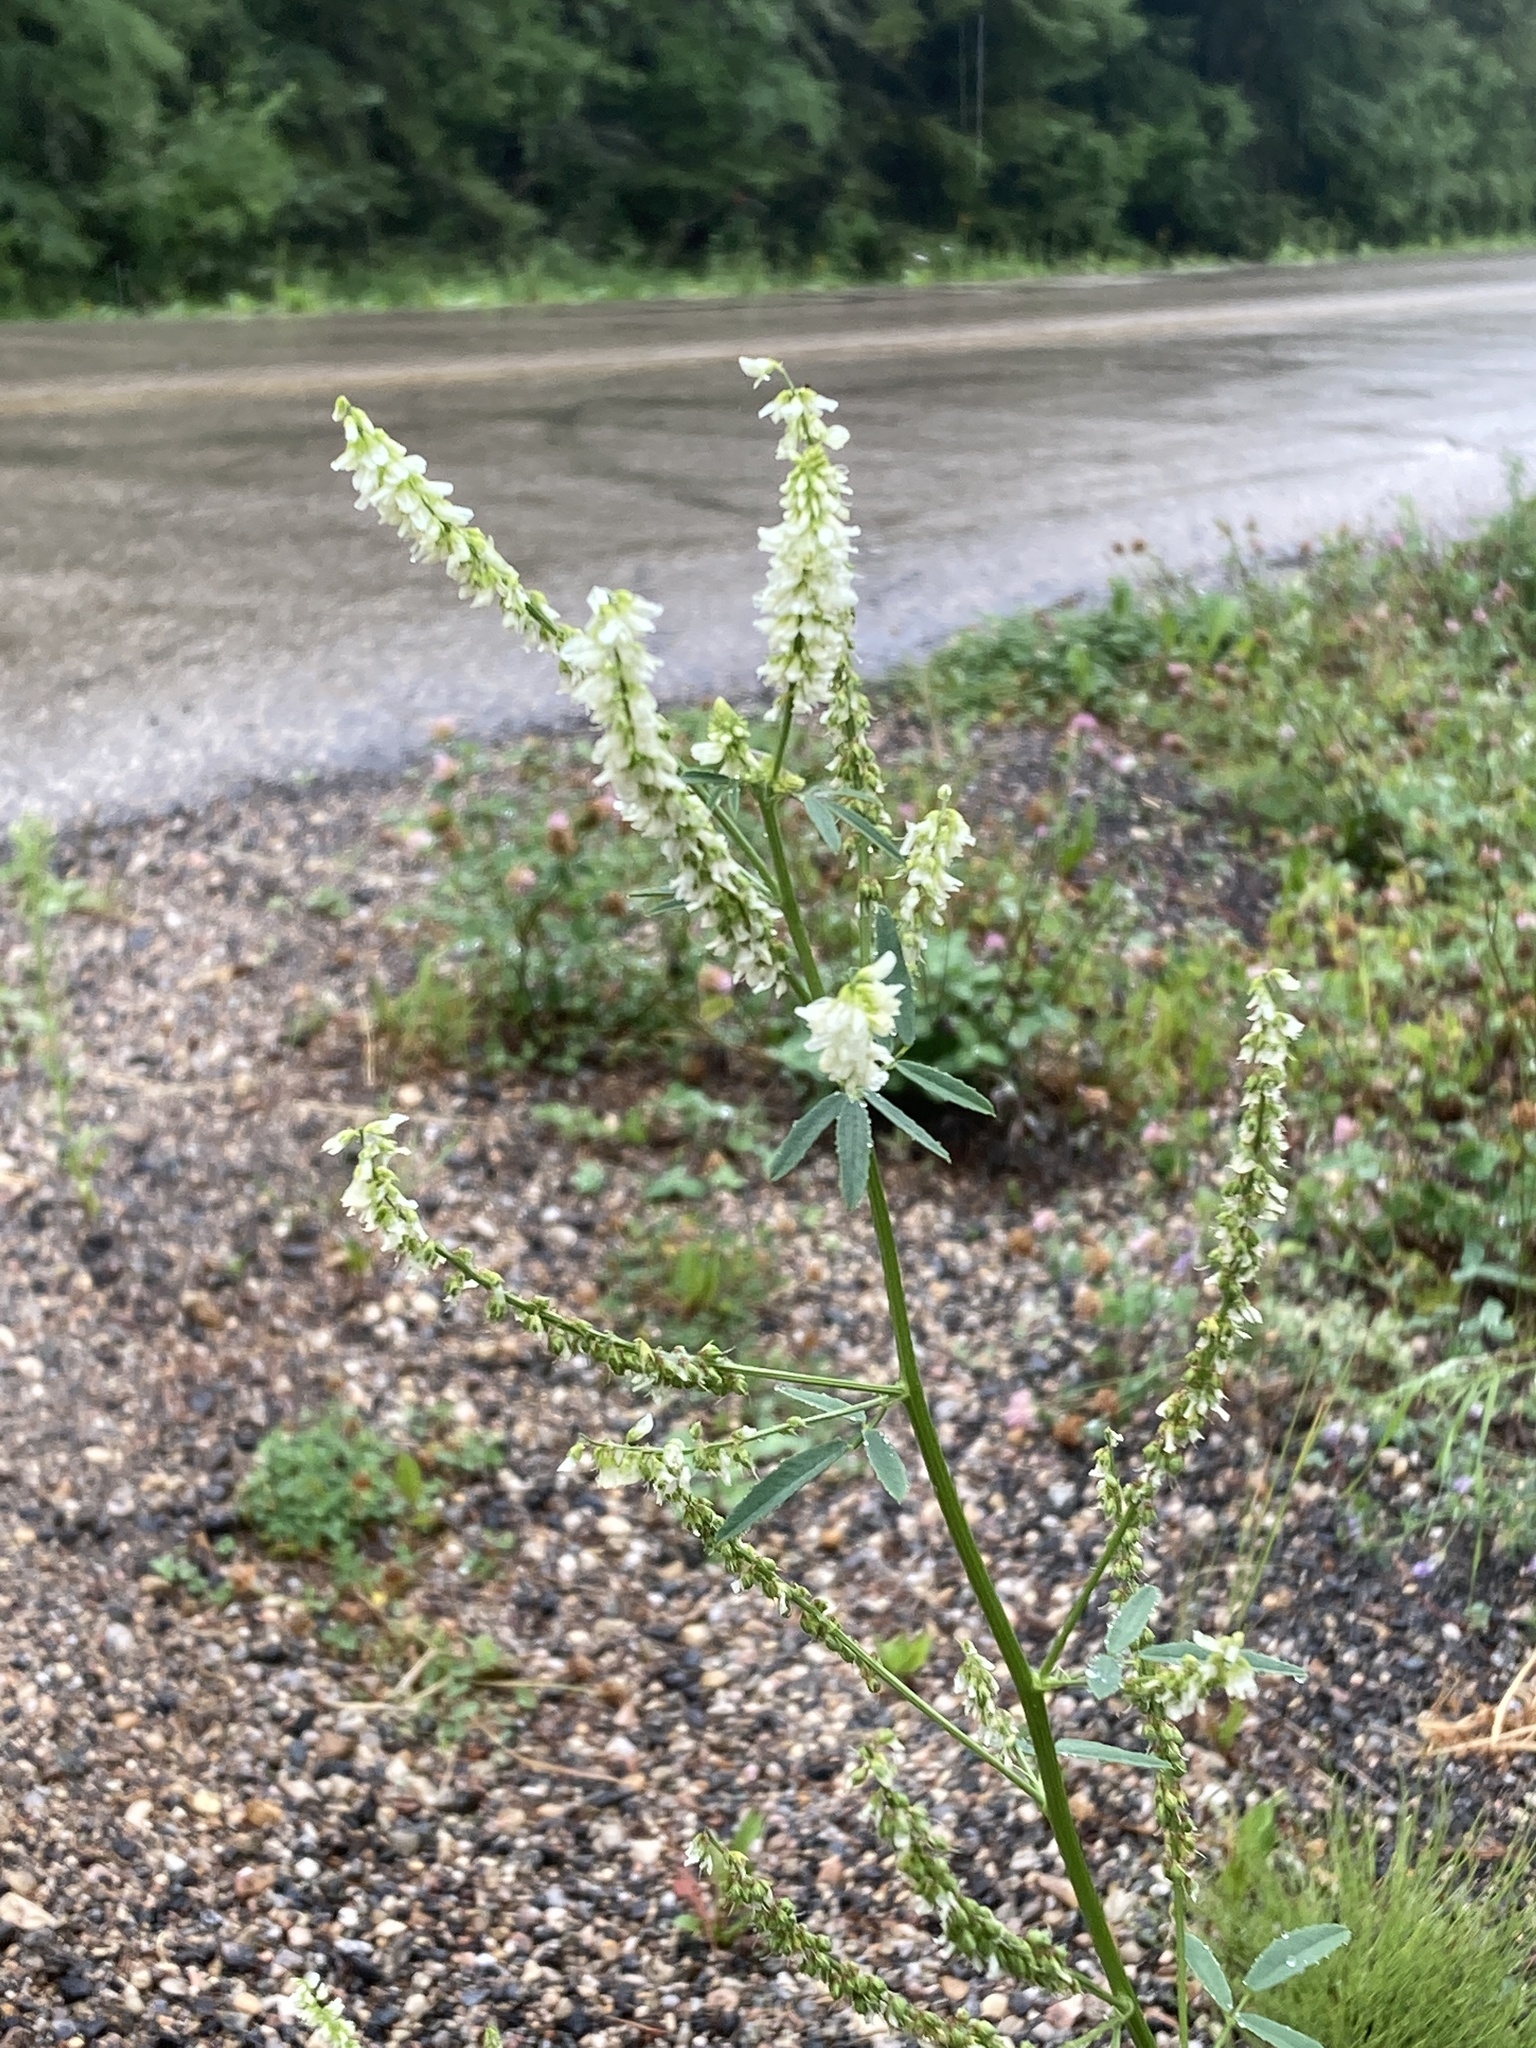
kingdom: Plantae
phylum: Tracheophyta
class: Magnoliopsida
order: Fabales
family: Fabaceae
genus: Melilotus
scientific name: Melilotus albus
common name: White melilot
